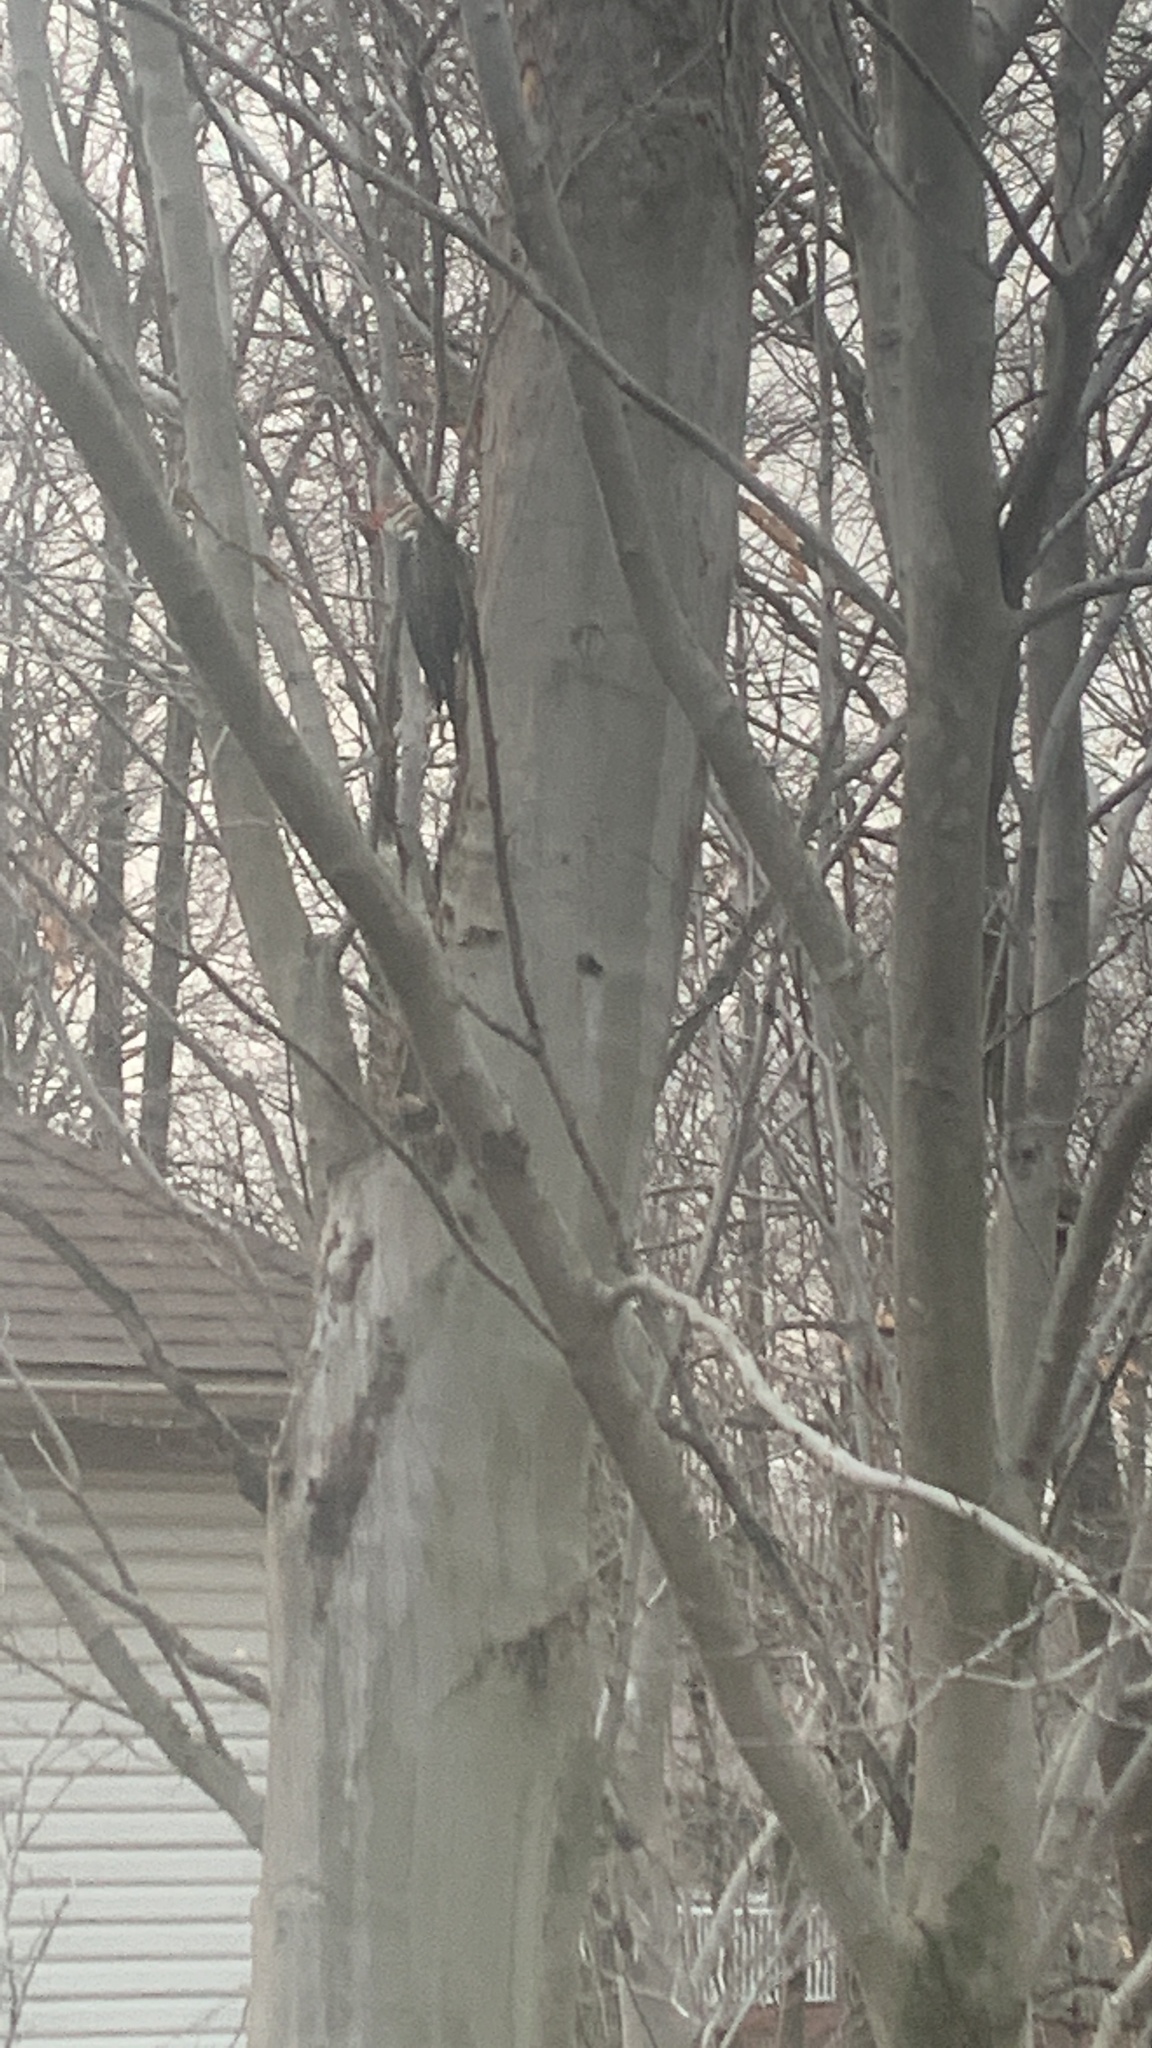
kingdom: Animalia
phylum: Chordata
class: Aves
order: Piciformes
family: Picidae
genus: Dryocopus
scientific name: Dryocopus pileatus
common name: Pileated woodpecker
